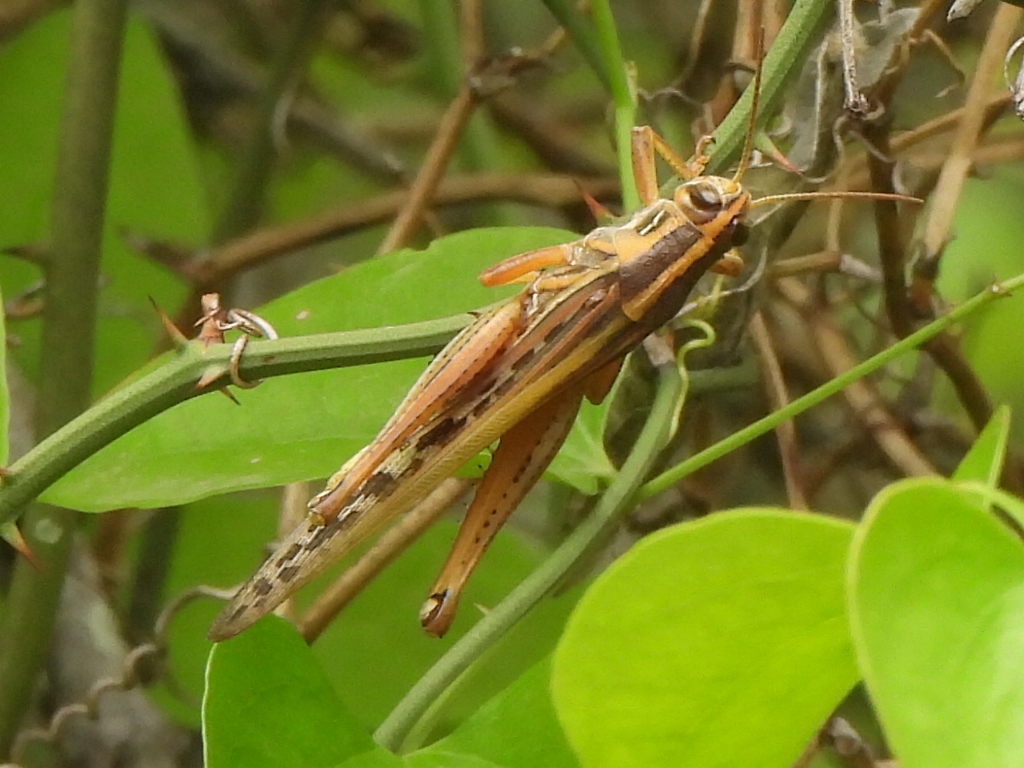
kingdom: Animalia
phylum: Arthropoda
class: Insecta
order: Orthoptera
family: Acrididae
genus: Schistocerca
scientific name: Schistocerca americana
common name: American bird locust
